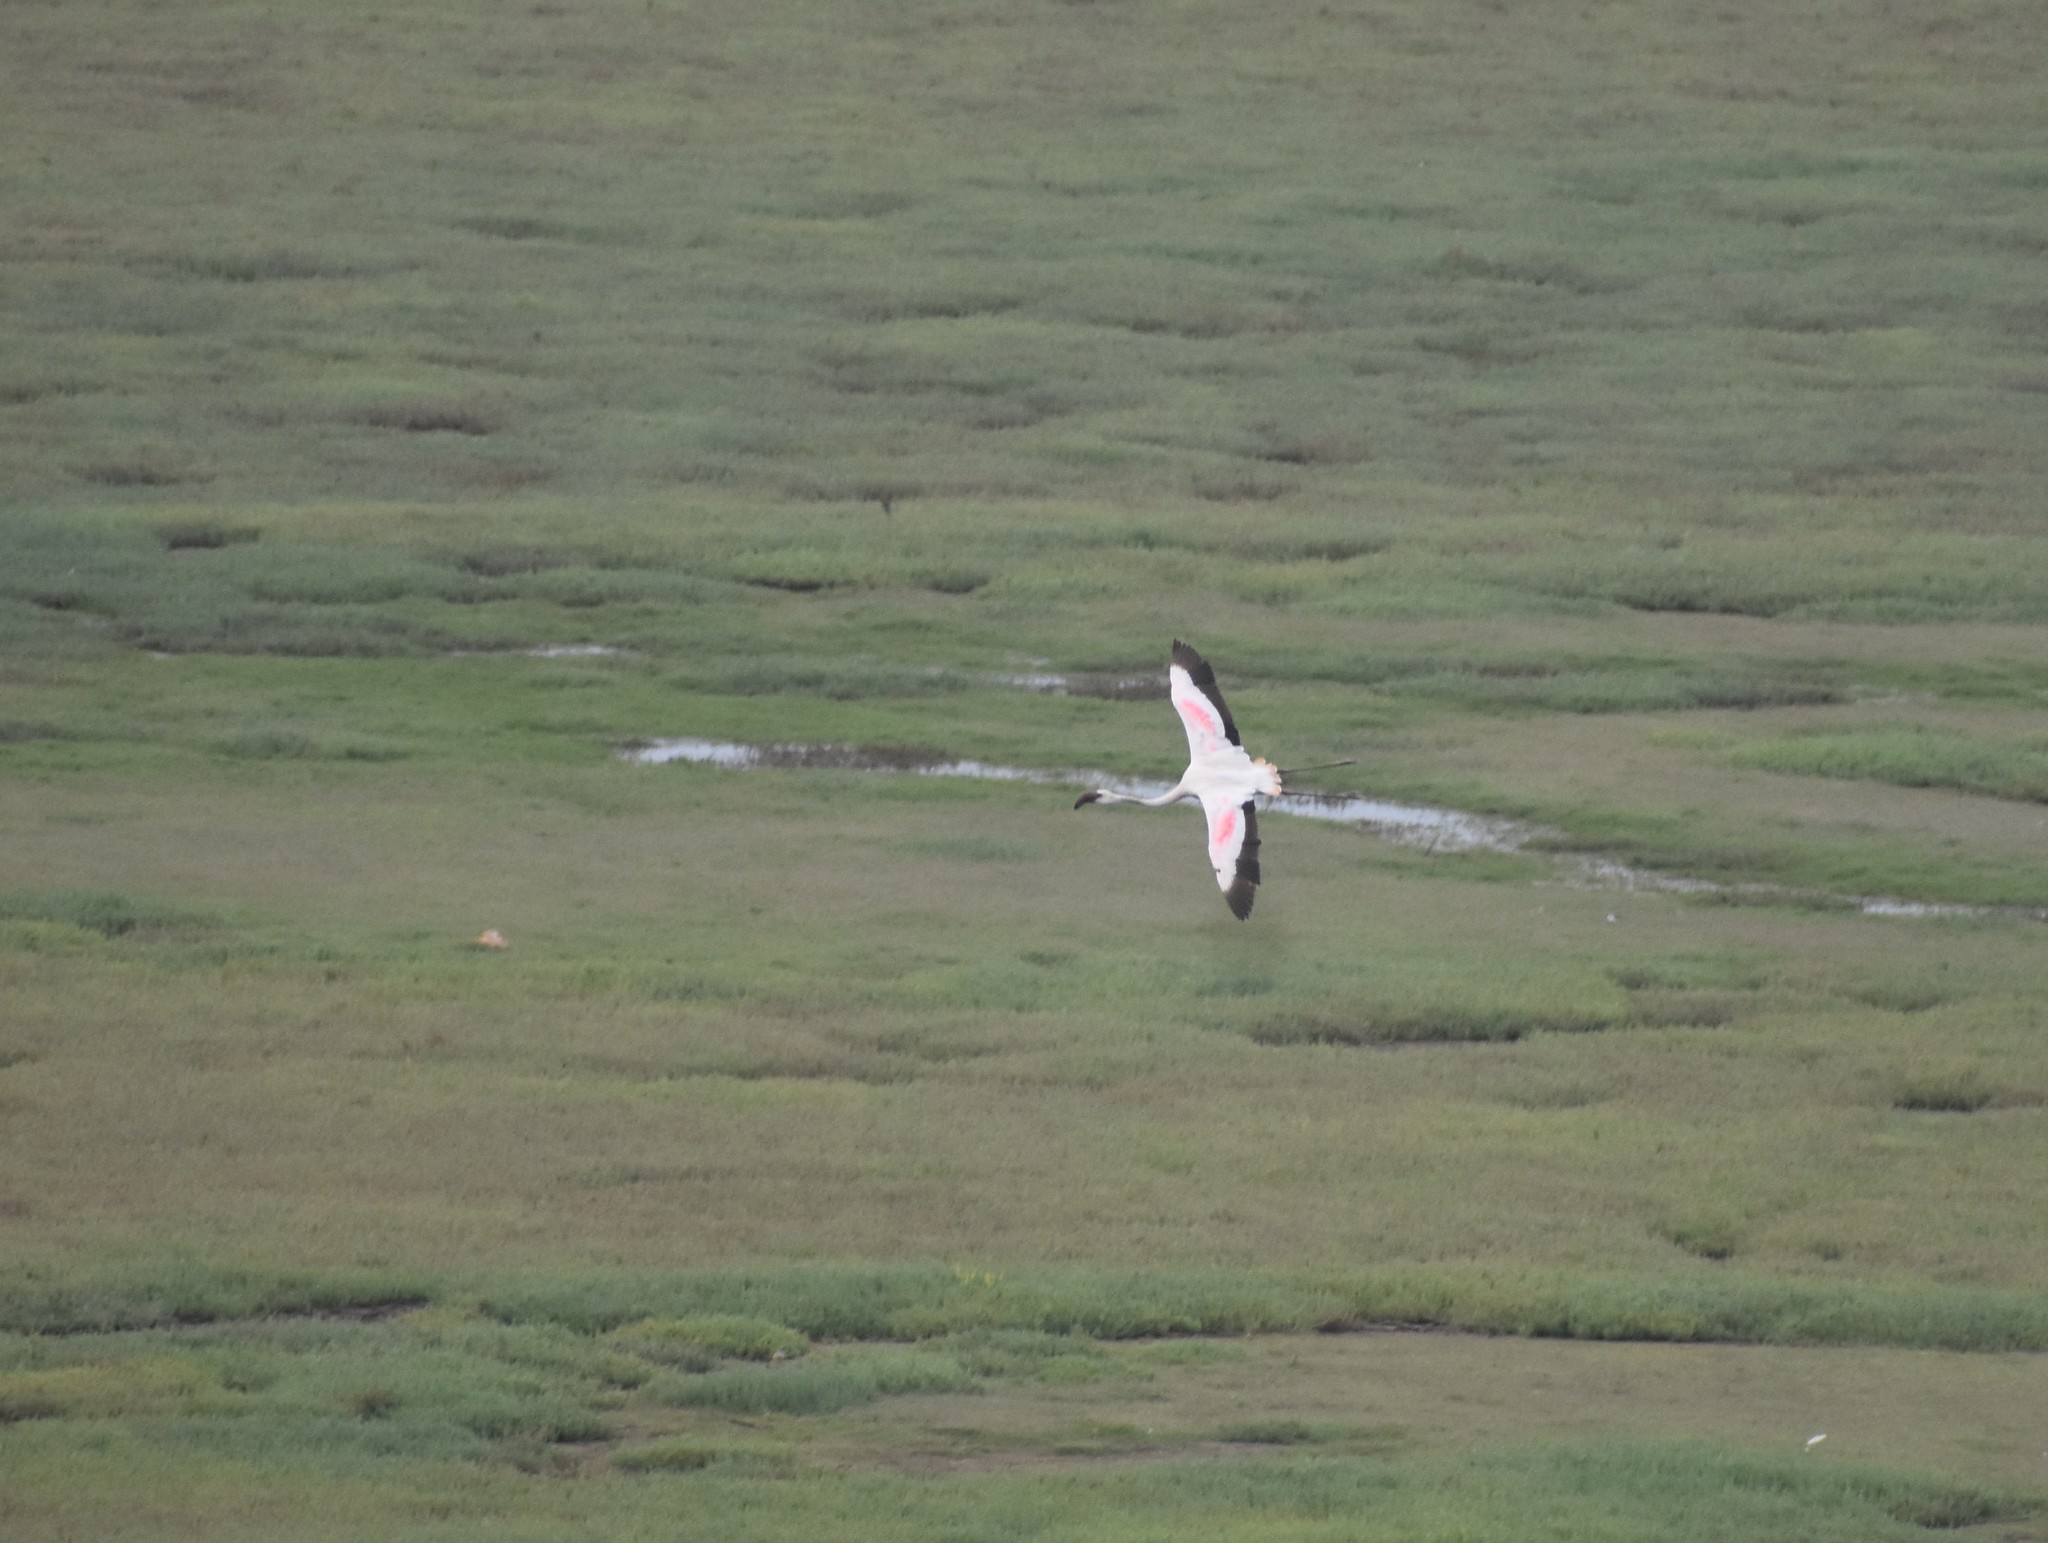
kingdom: Animalia
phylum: Chordata
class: Aves
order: Phoenicopteriformes
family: Phoenicopteridae
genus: Phoeniconaias
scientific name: Phoeniconaias minor
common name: Lesser flamingo
